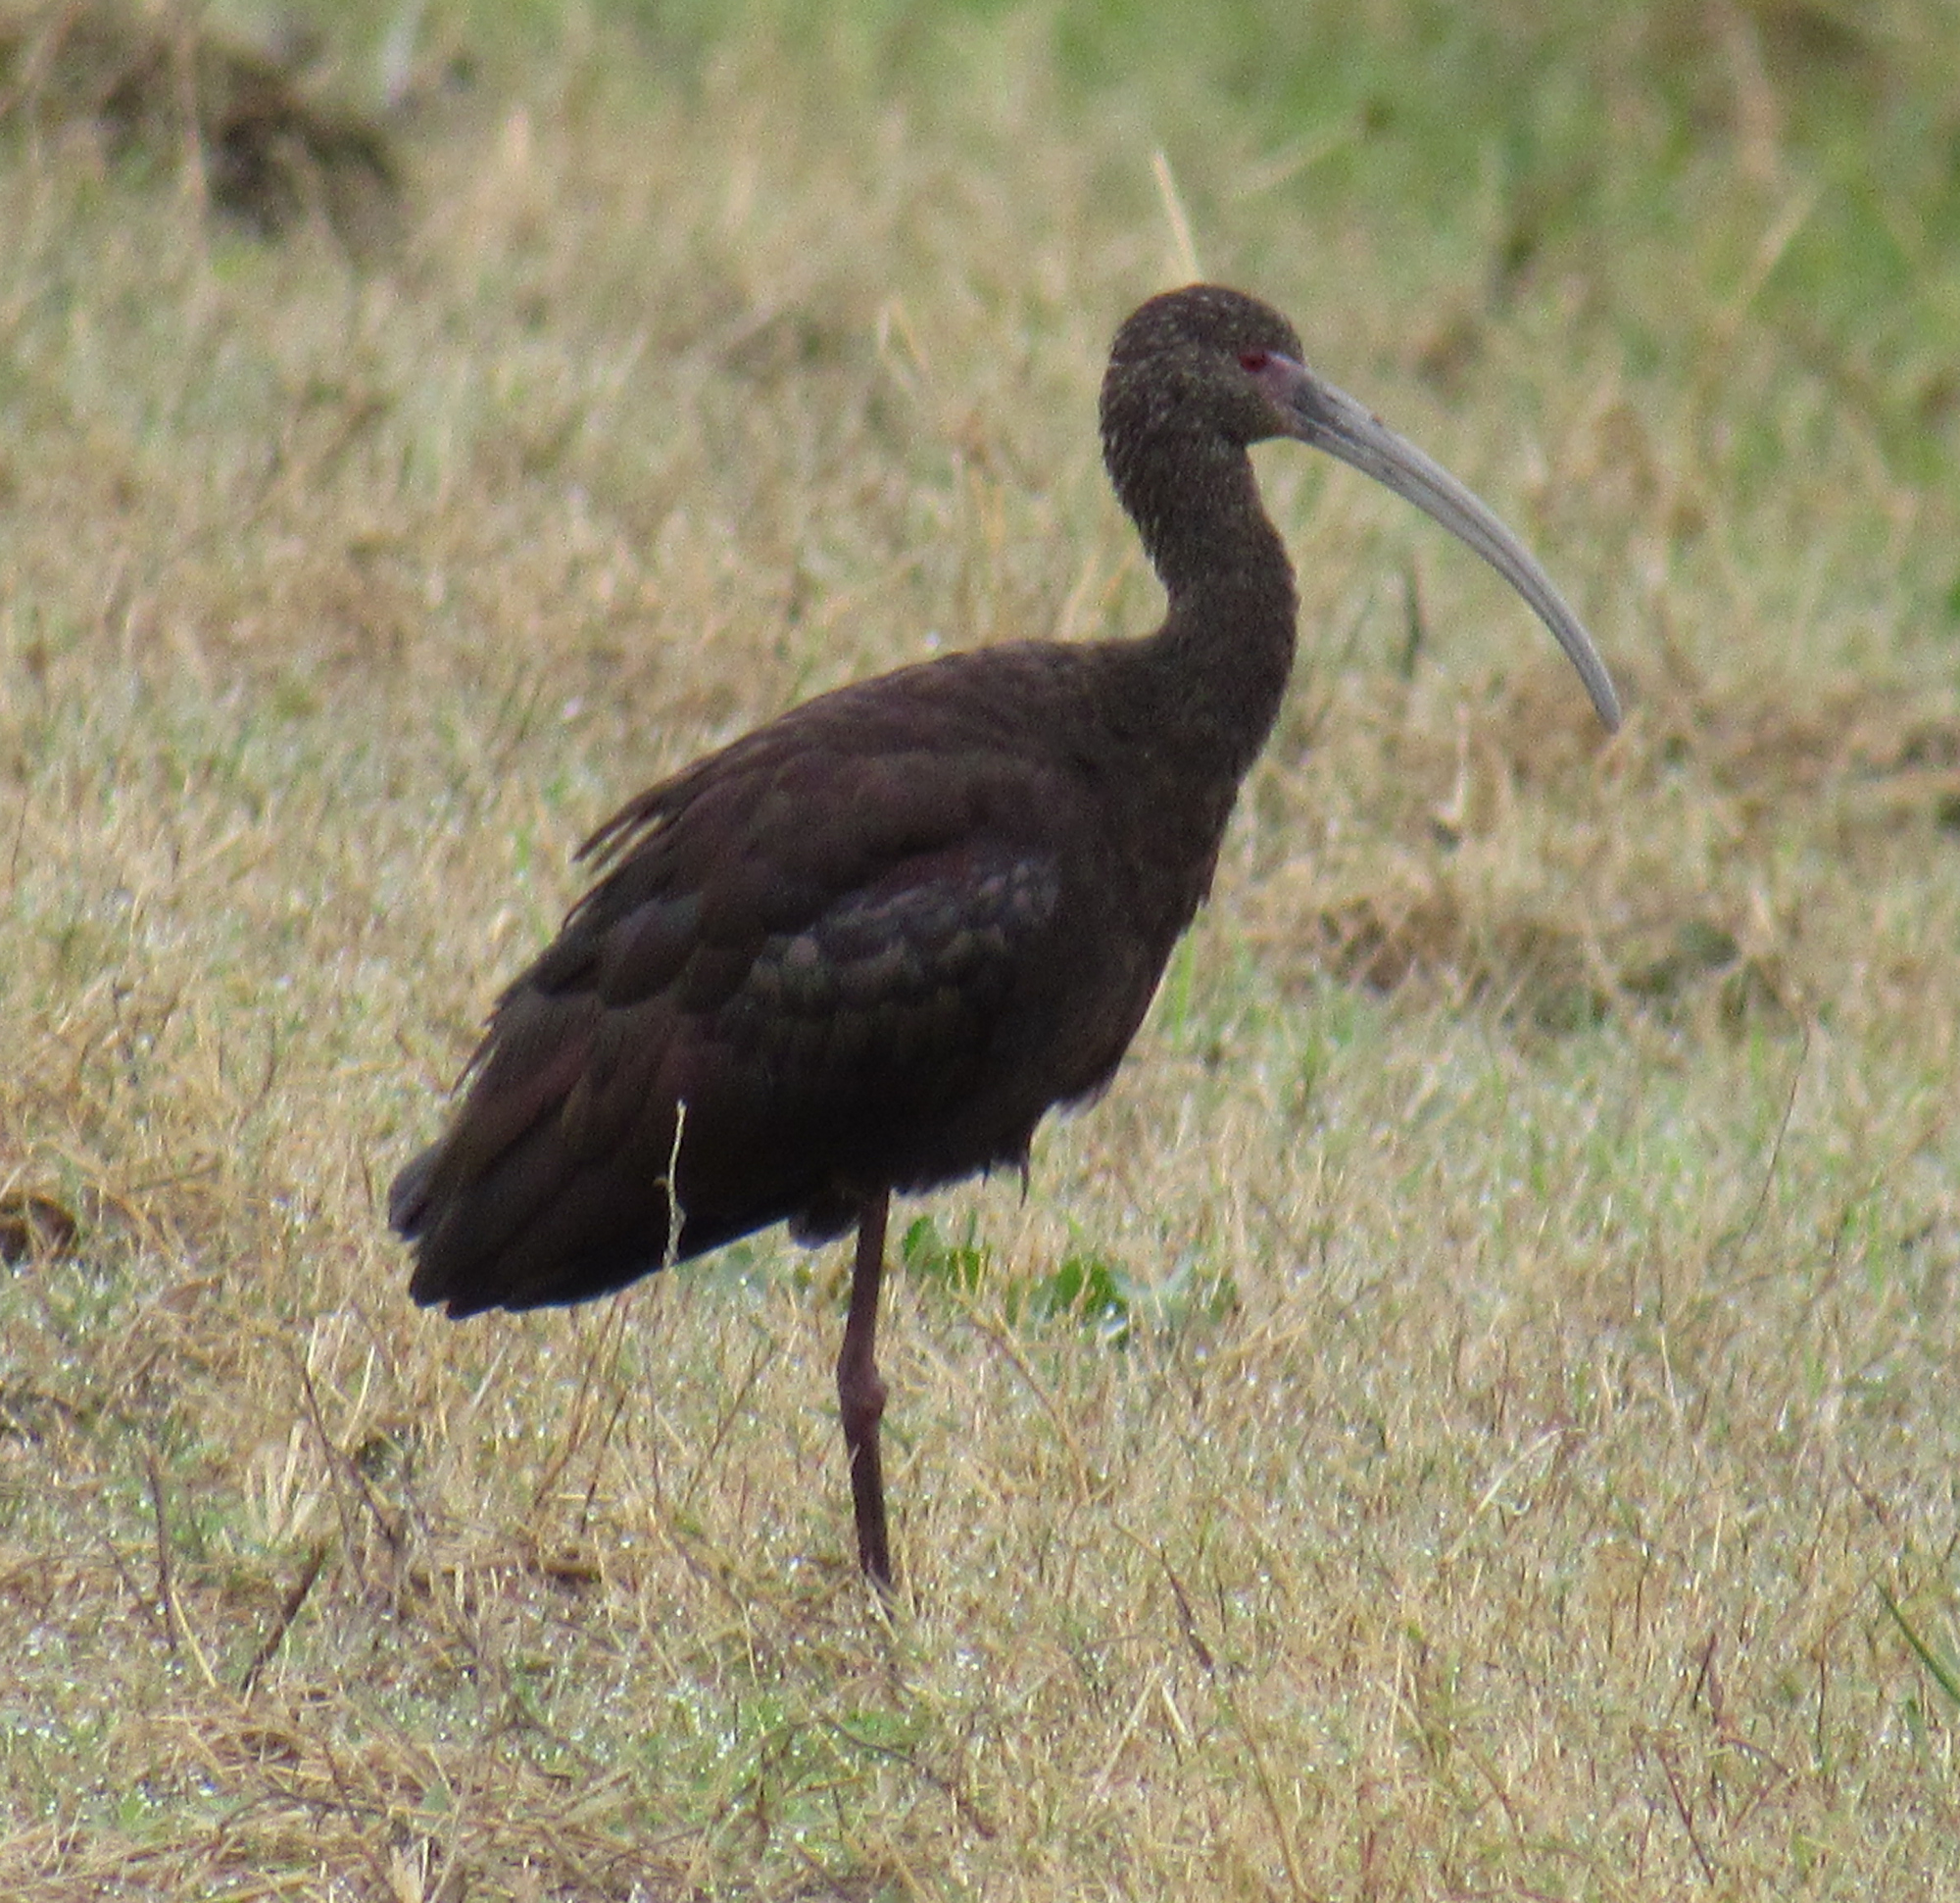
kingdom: Animalia
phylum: Chordata
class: Aves
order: Pelecaniformes
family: Threskiornithidae
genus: Plegadis
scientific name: Plegadis chihi
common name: White-faced ibis
